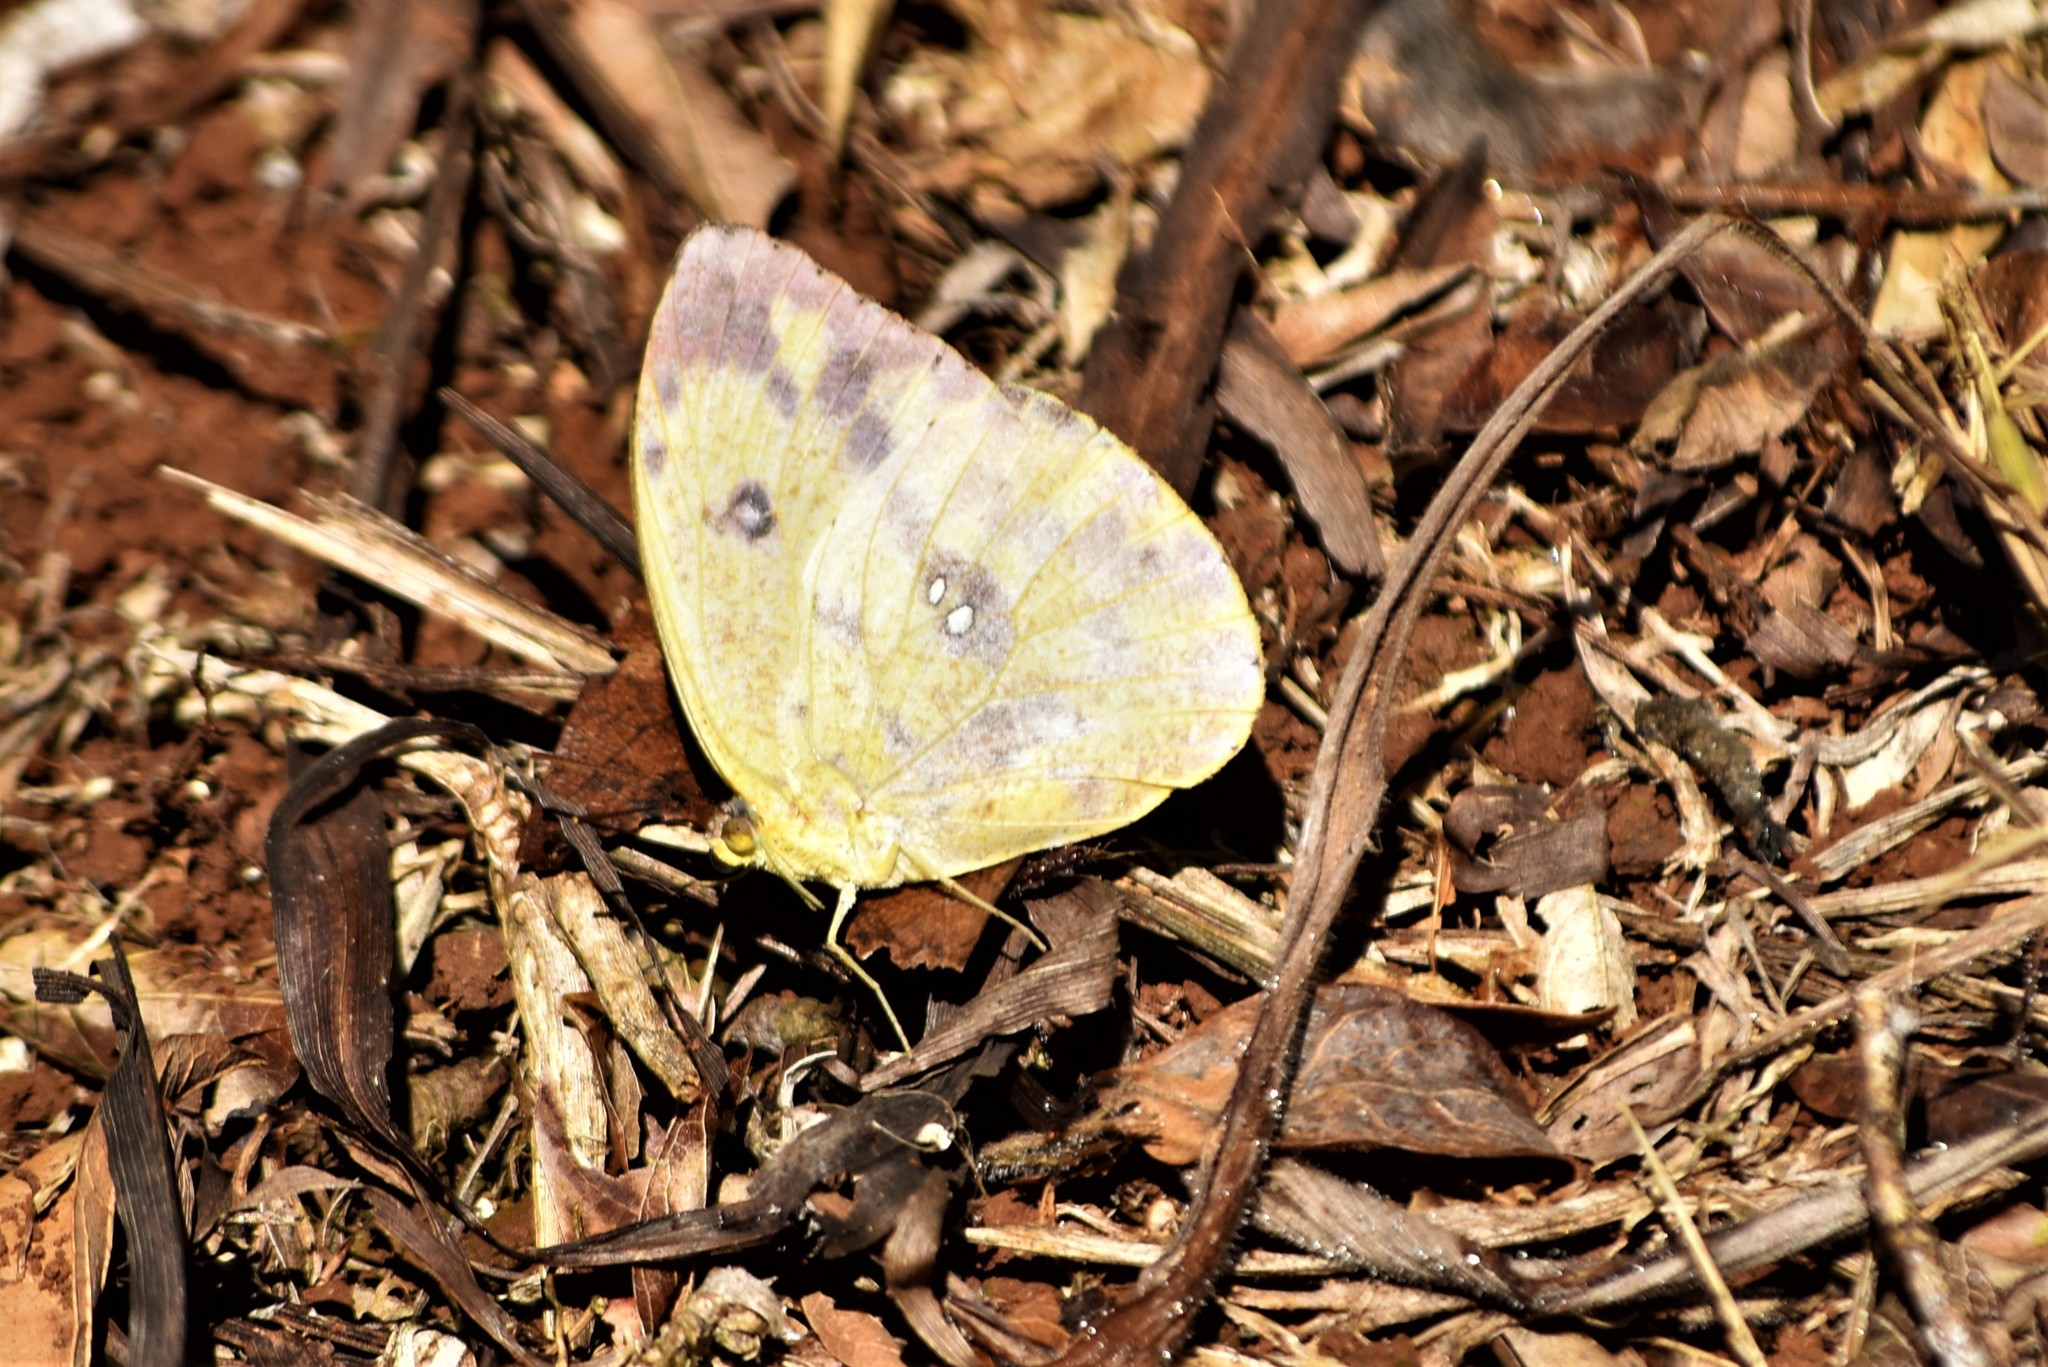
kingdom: Animalia
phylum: Arthropoda
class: Insecta
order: Lepidoptera
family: Pieridae
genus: Phoebis
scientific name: Phoebis argante
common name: Apricot sulphur
